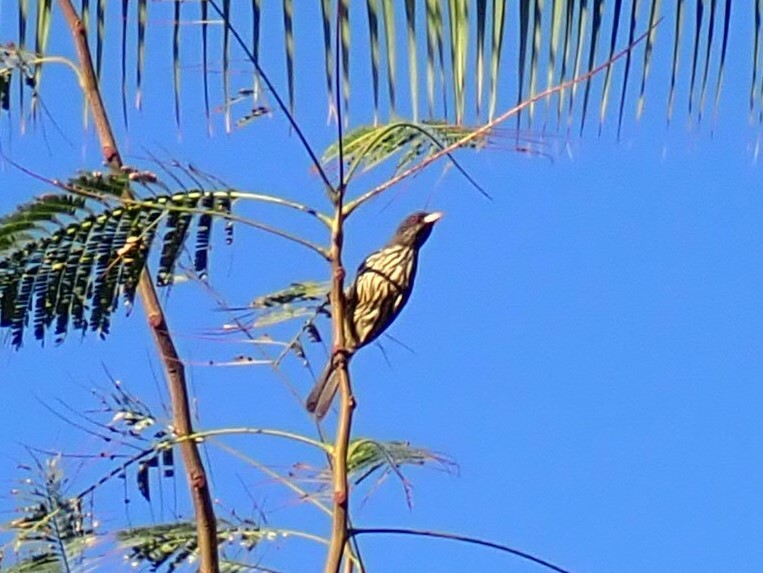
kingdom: Animalia
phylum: Chordata
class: Aves
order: Passeriformes
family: Dulidae
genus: Dulus
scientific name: Dulus dominicus
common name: Palmchat
